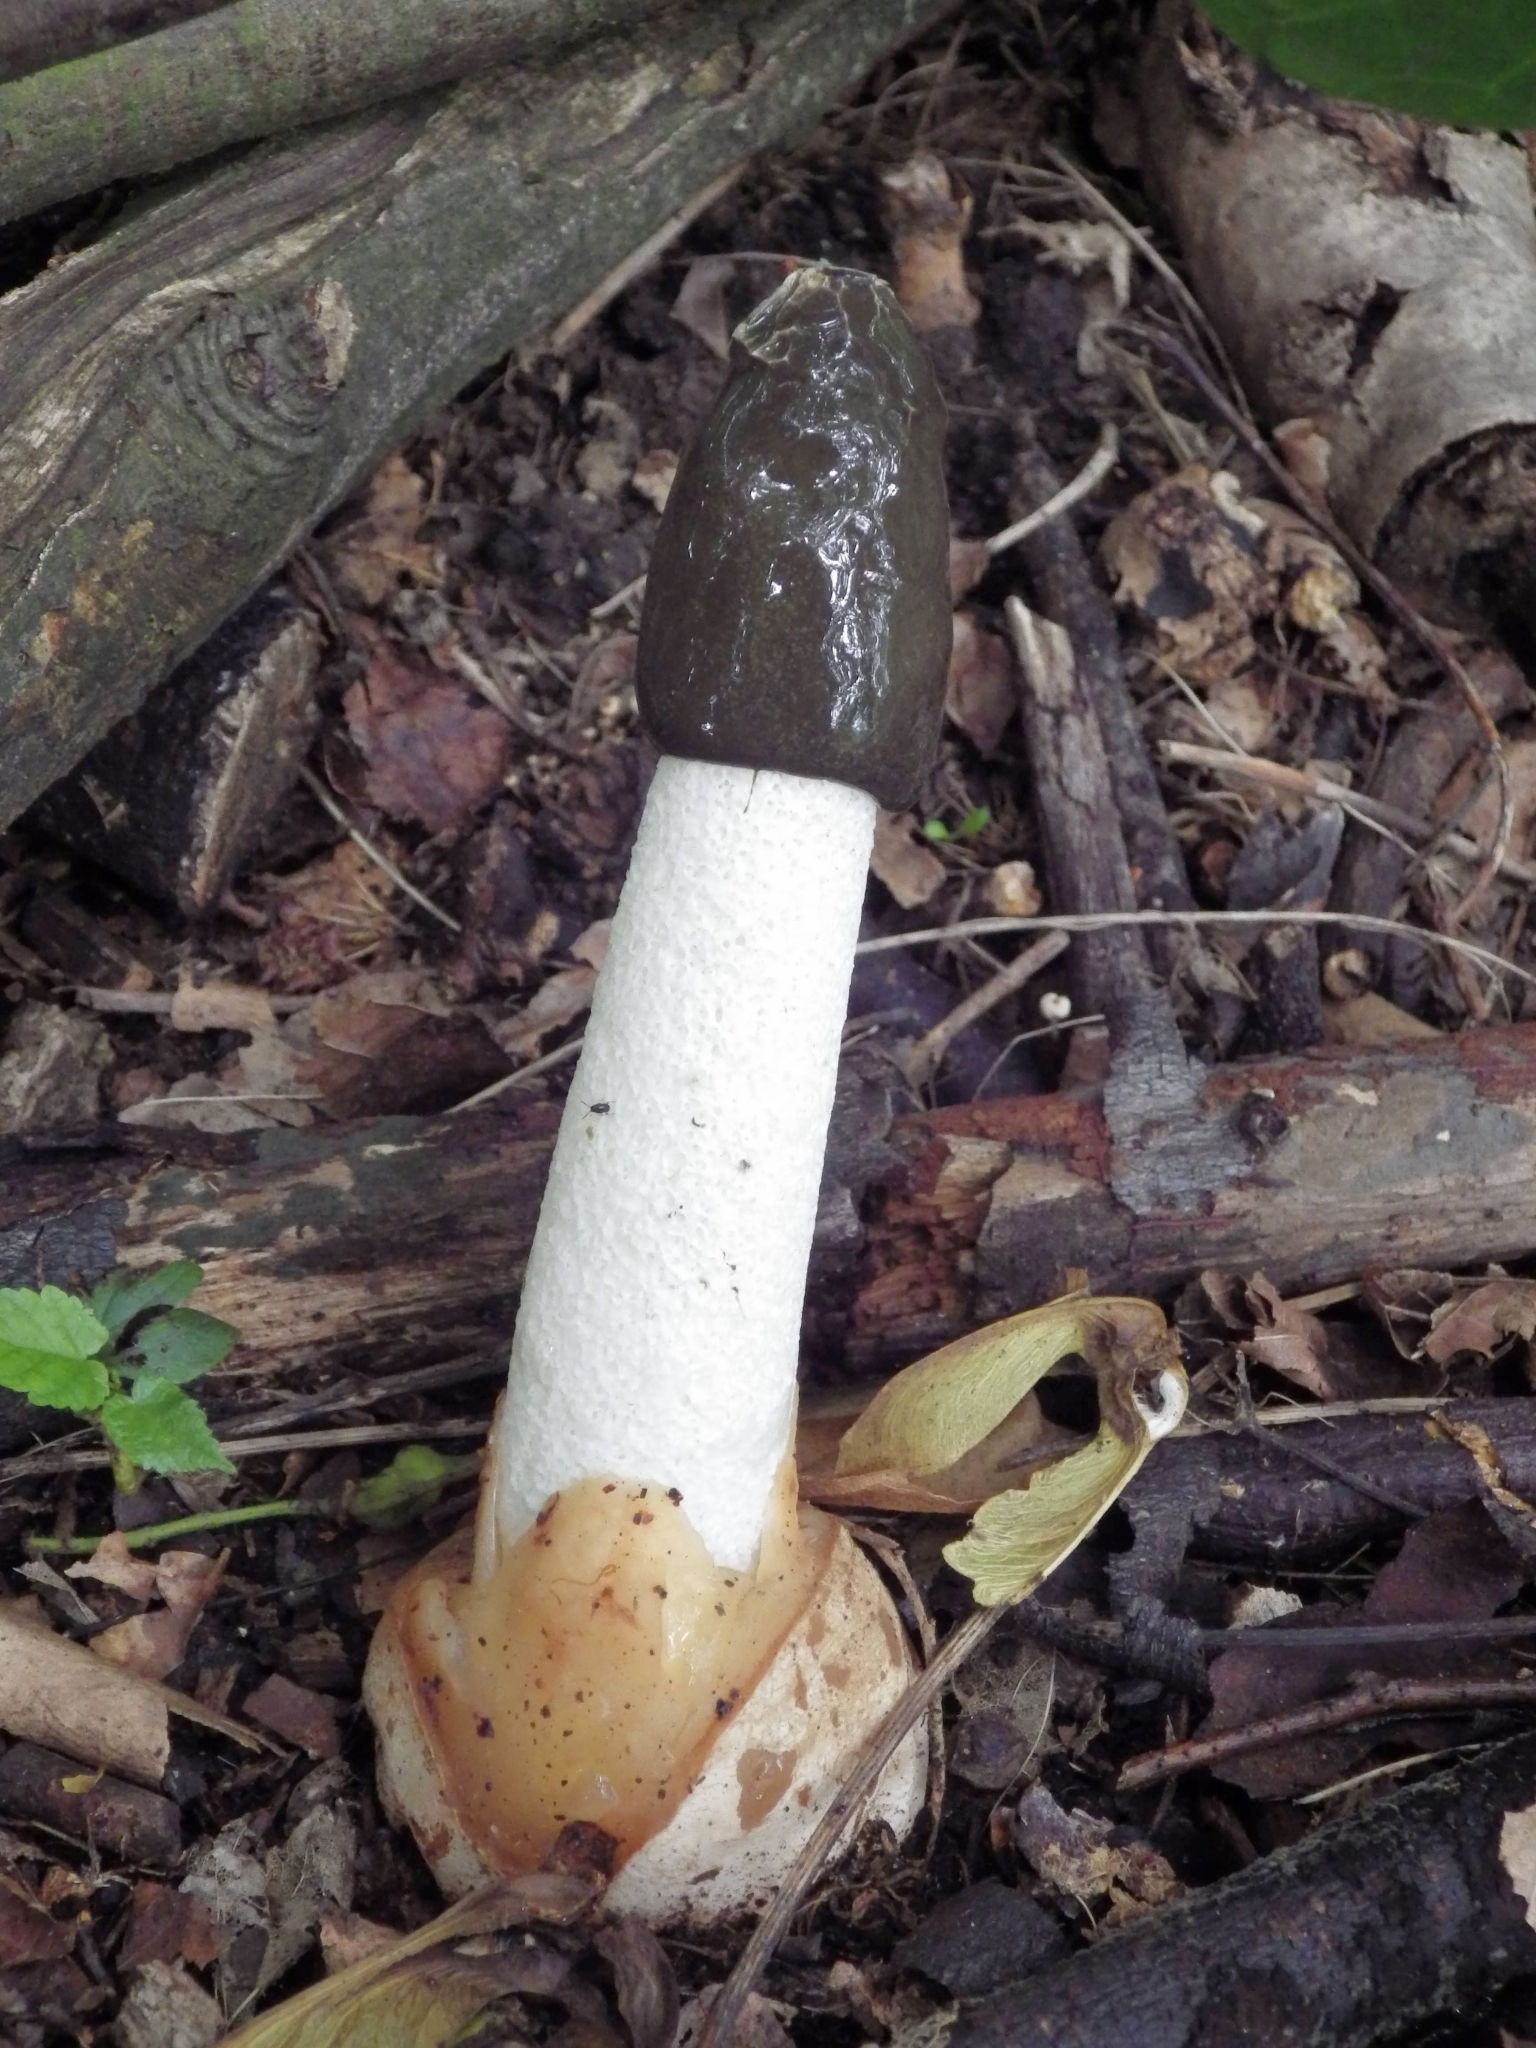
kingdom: Fungi
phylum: Basidiomycota
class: Agaricomycetes
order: Phallales
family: Phallaceae
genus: Phallus
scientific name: Phallus impudicus
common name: Common stinkhorn
